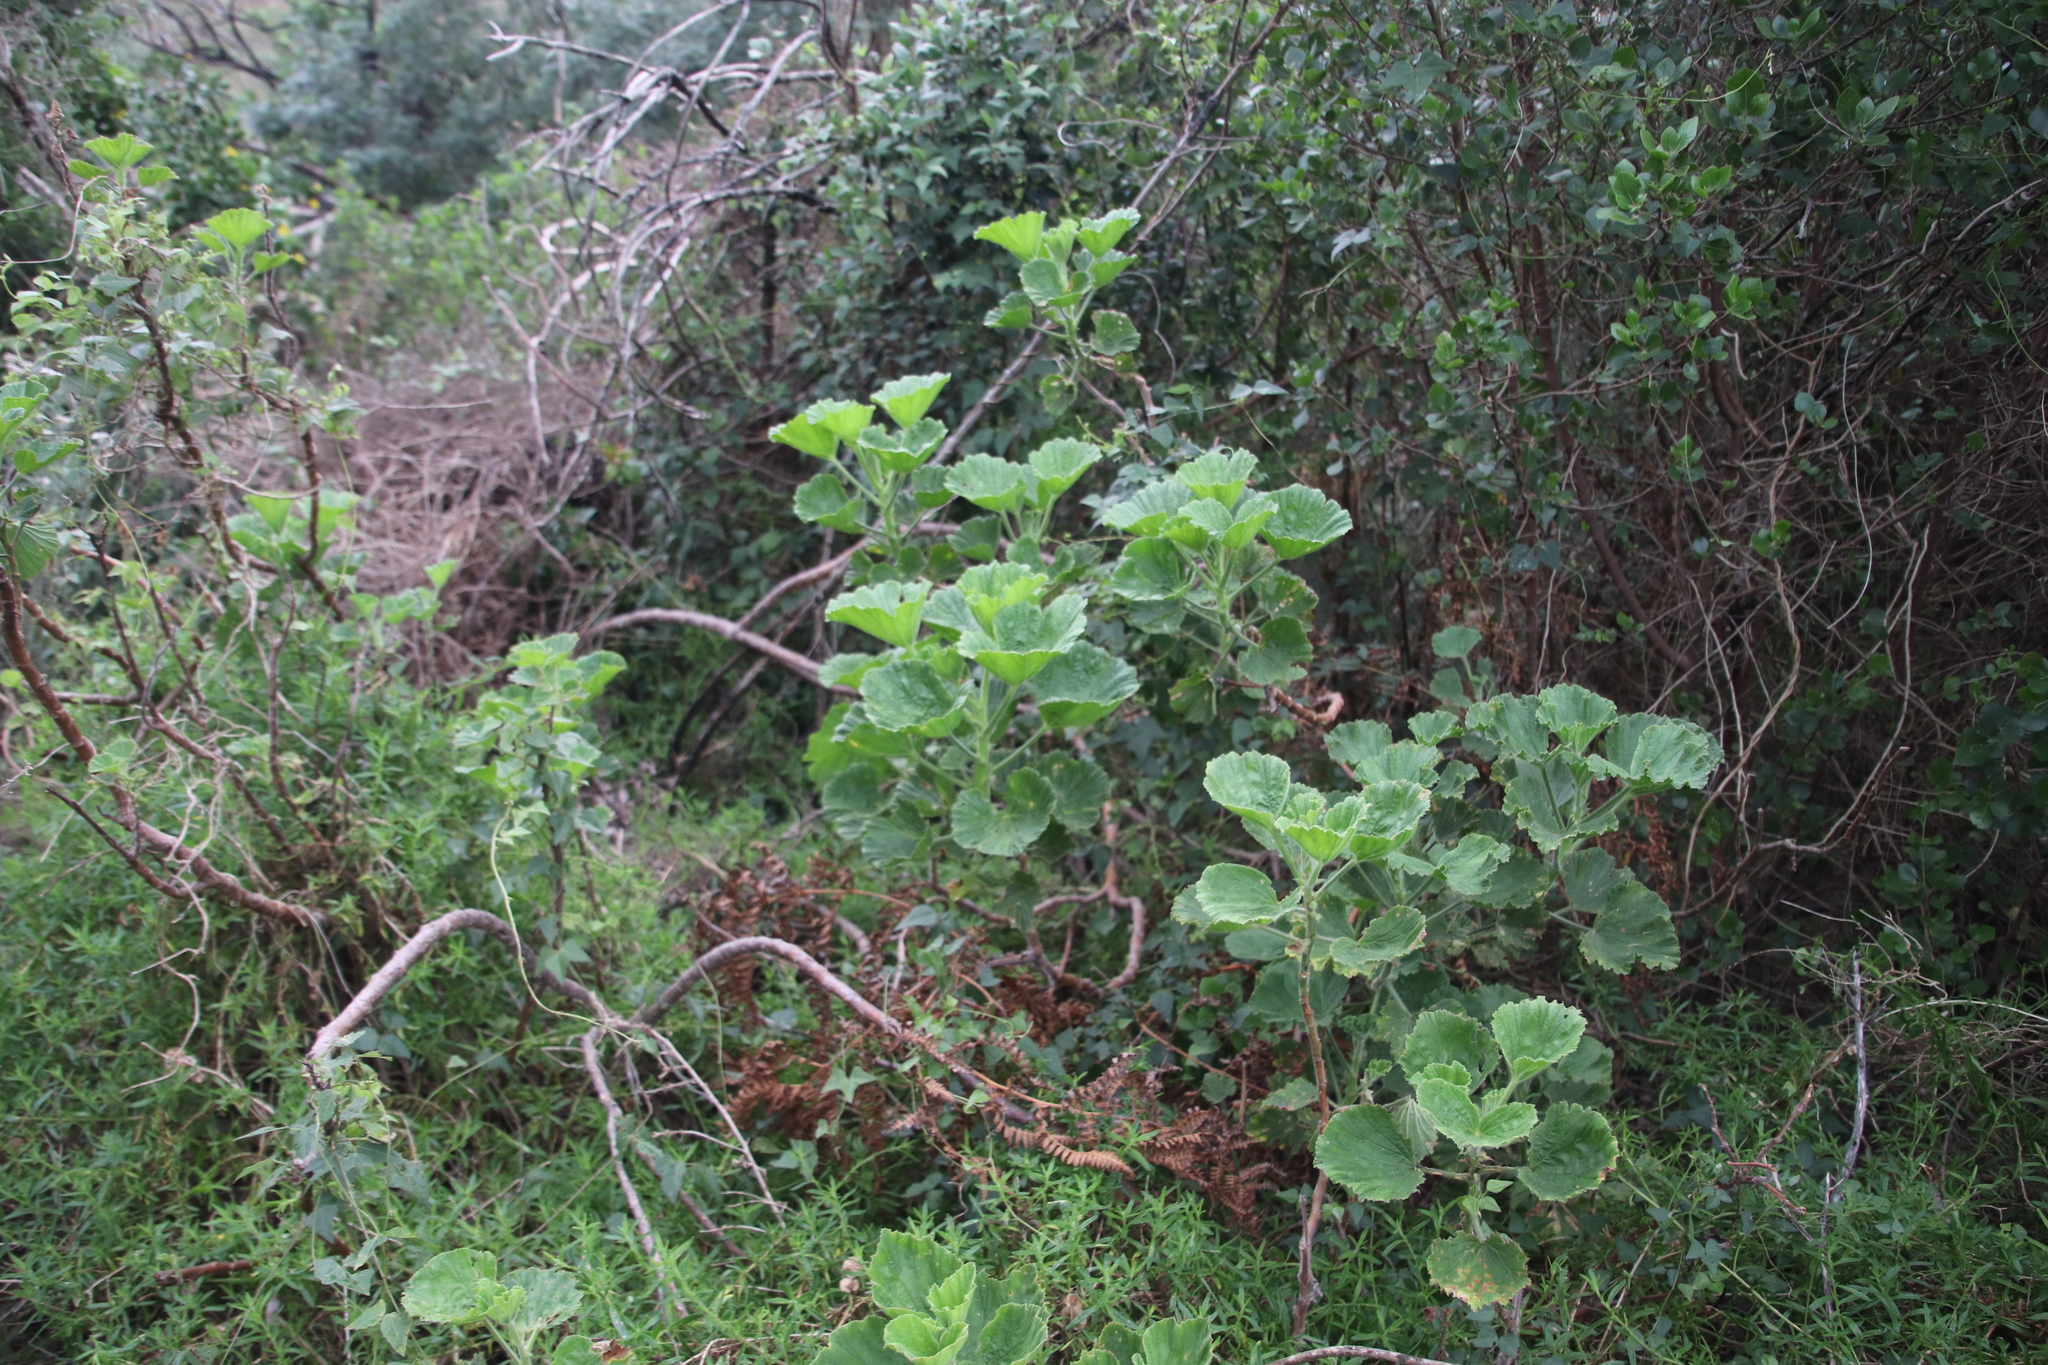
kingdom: Plantae
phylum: Tracheophyta
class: Magnoliopsida
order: Geraniales
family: Geraniaceae
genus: Pelargonium
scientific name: Pelargonium cucullatum
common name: Tree pelargonium
